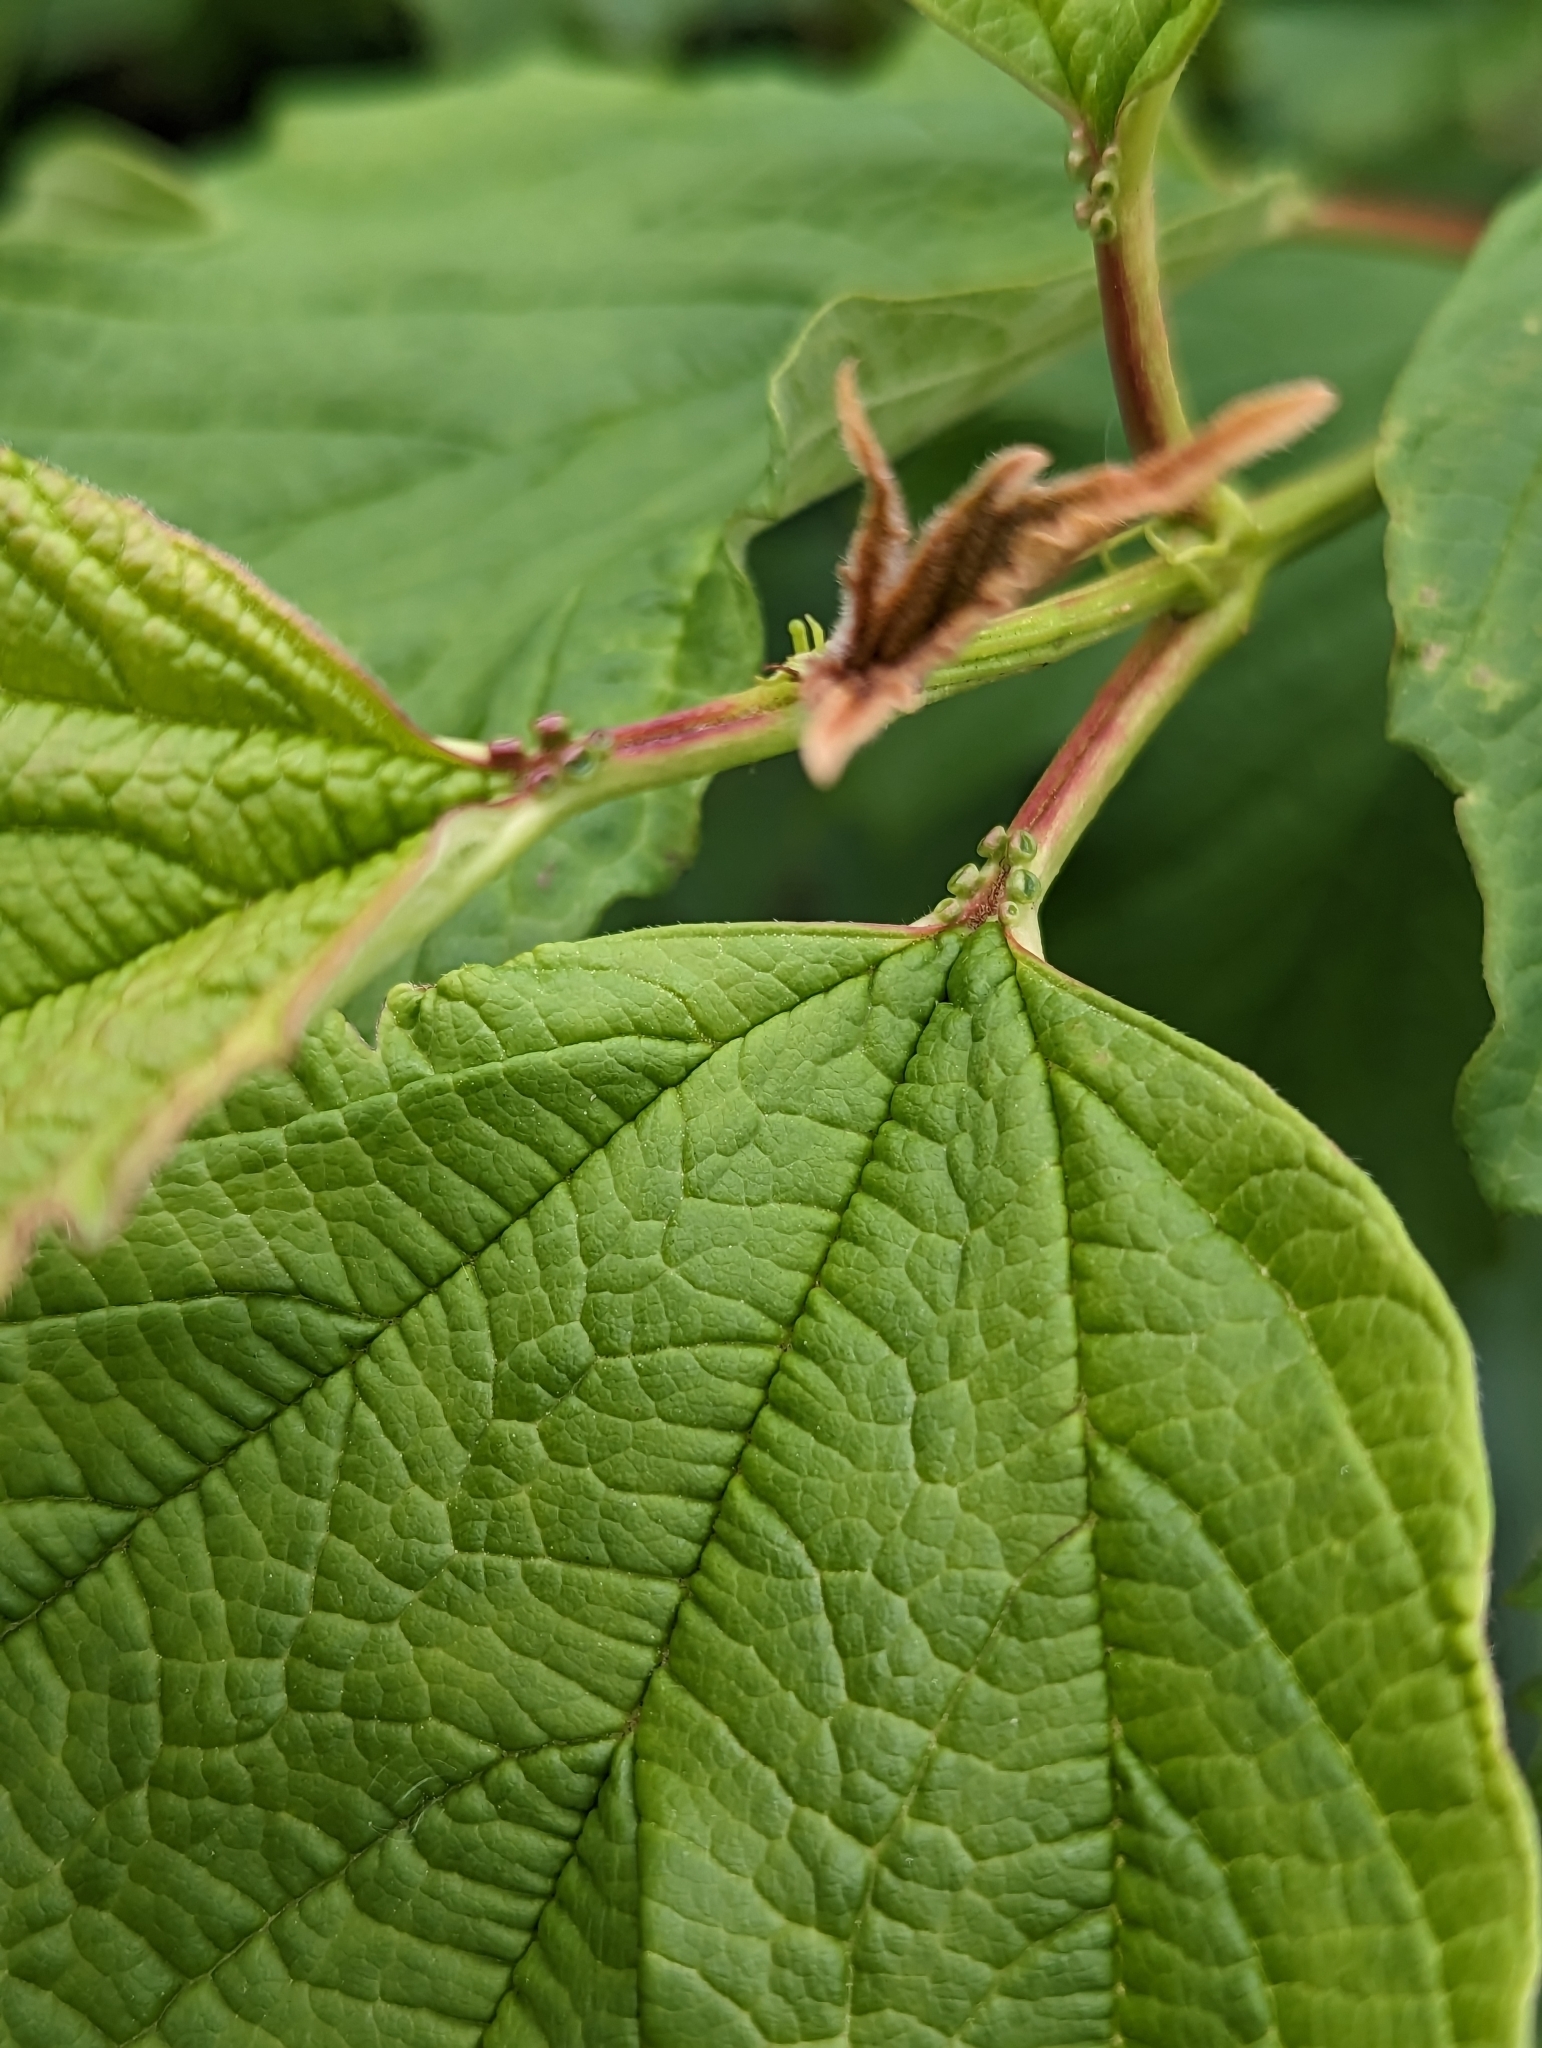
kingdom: Plantae
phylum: Tracheophyta
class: Magnoliopsida
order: Dipsacales
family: Viburnaceae
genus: Viburnum
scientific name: Viburnum opulus
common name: Guelder-rose
